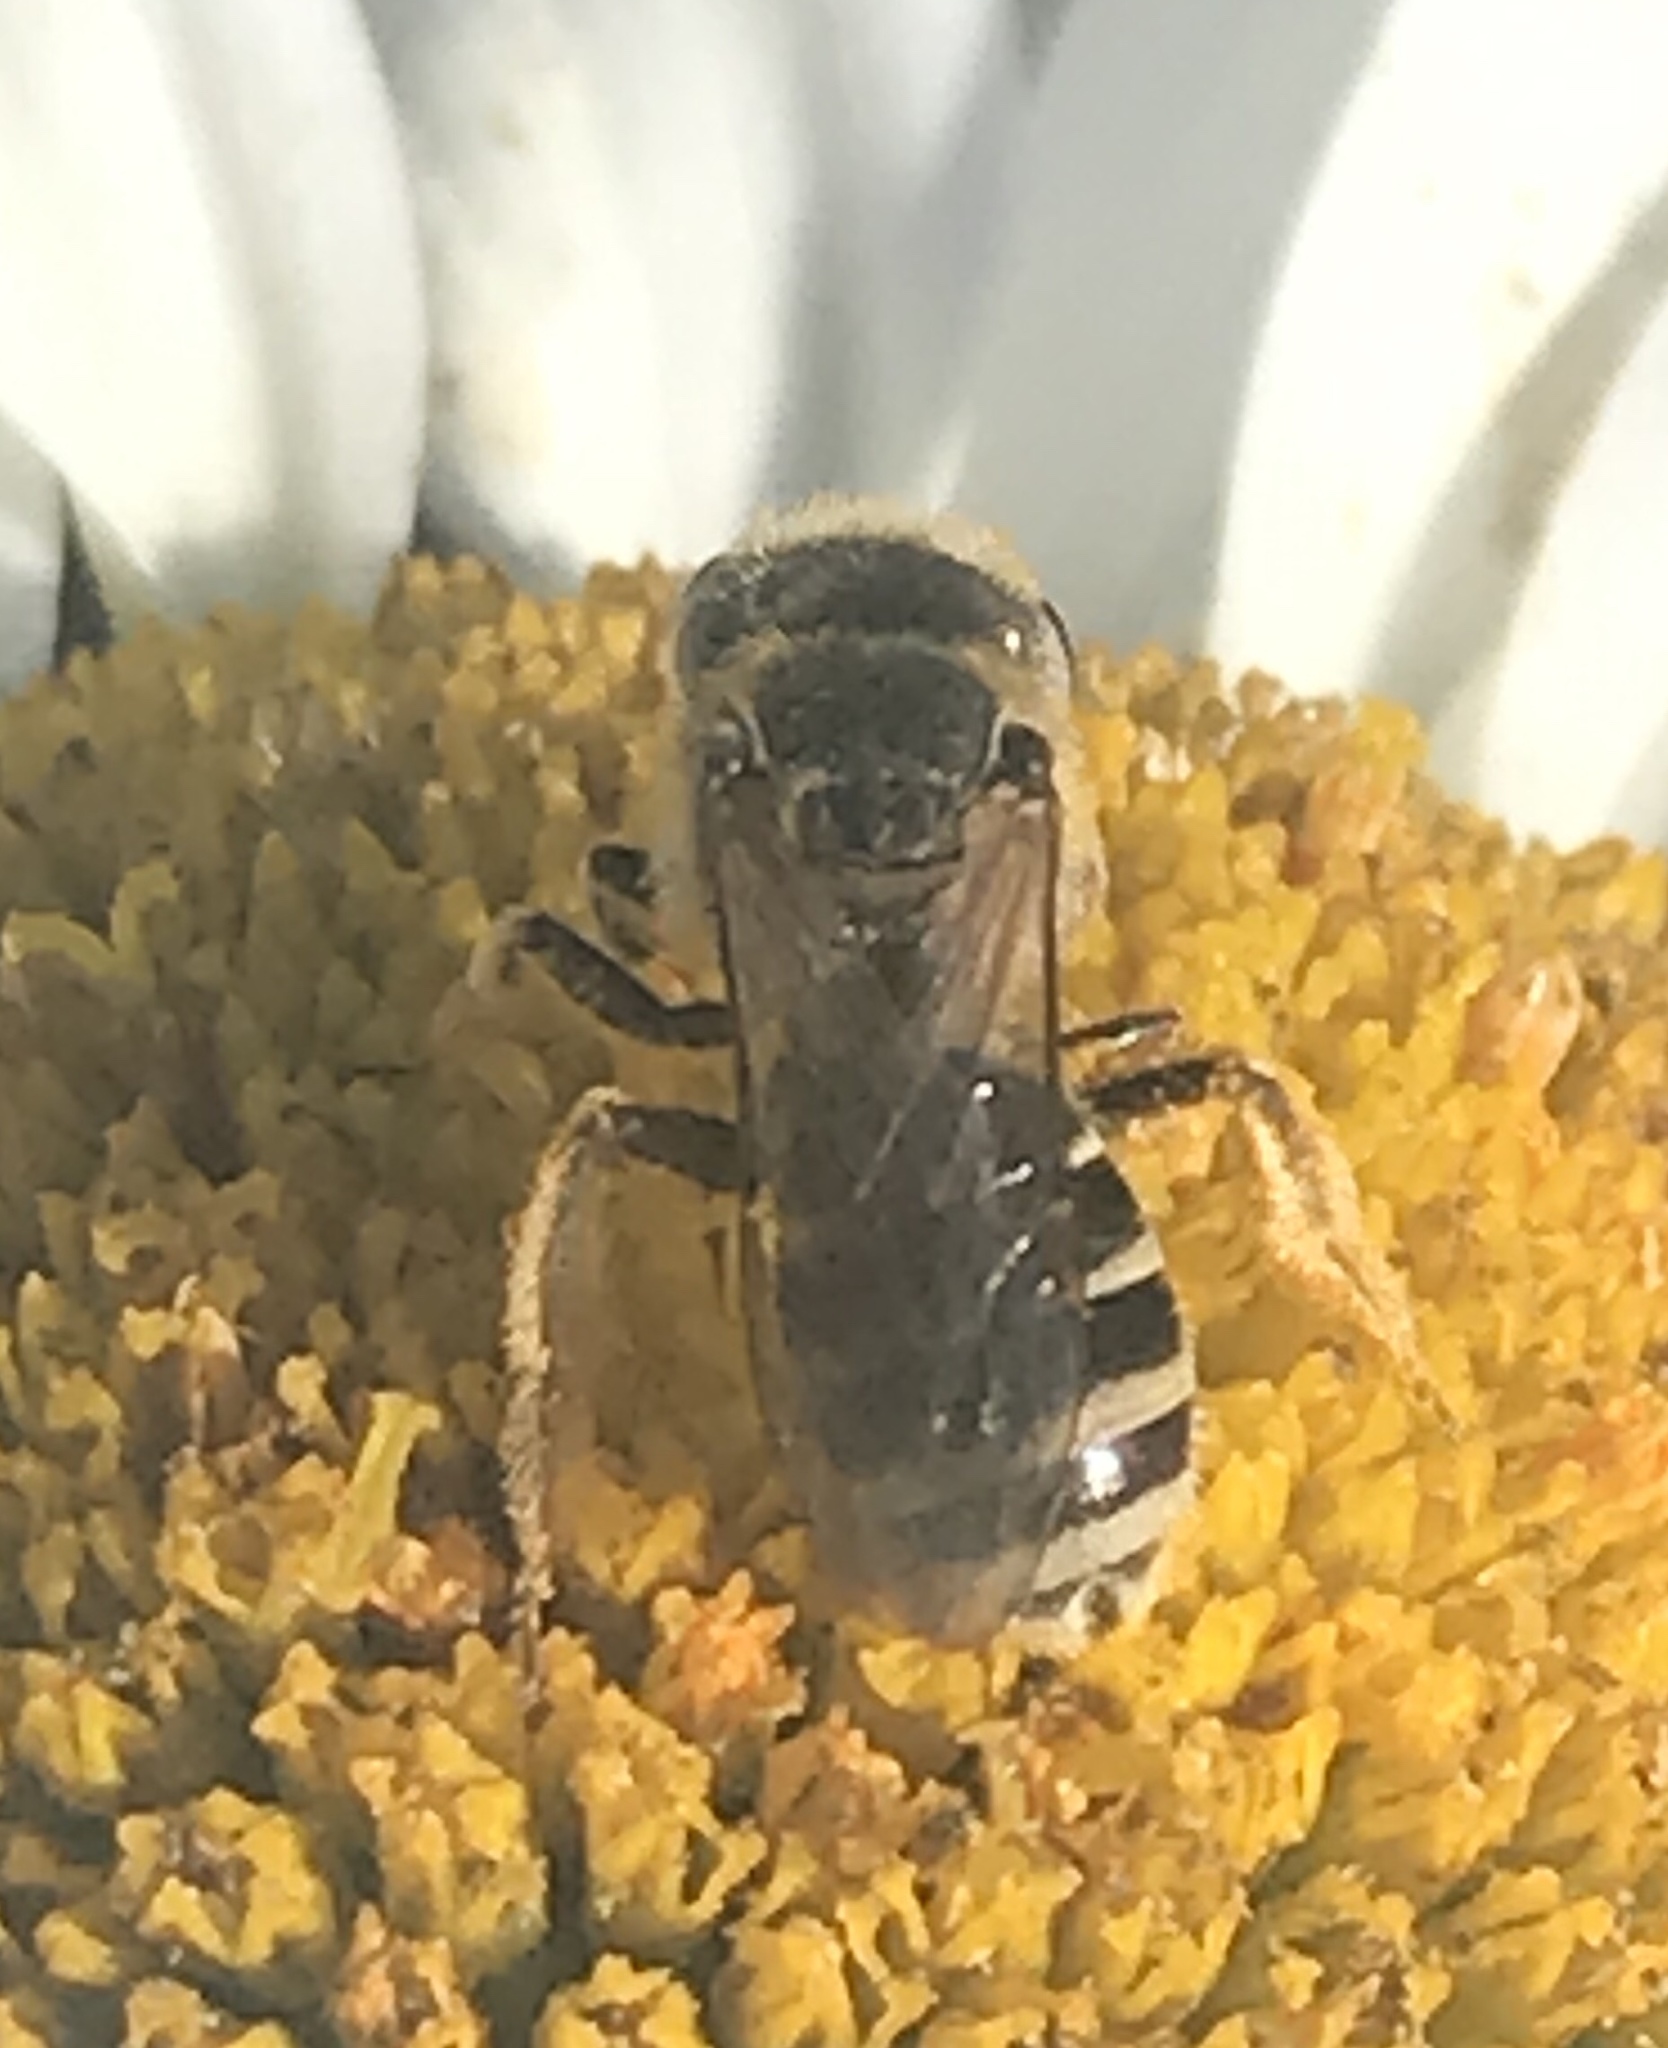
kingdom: Animalia
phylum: Arthropoda
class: Insecta
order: Hymenoptera
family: Halictidae
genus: Halictus
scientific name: Halictus ligatus
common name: Ligated furrow bee
